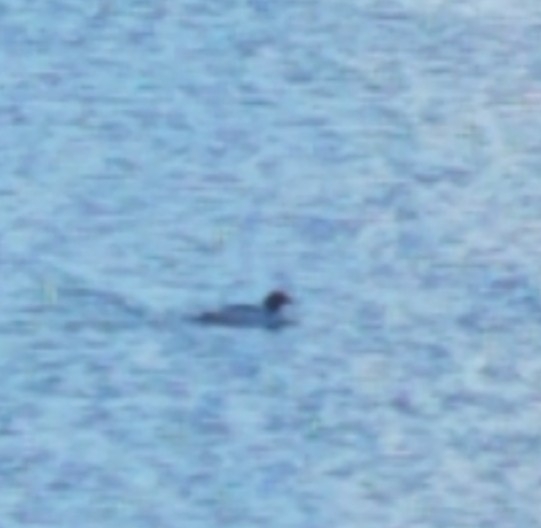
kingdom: Animalia
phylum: Chordata
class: Aves
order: Anseriformes
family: Anatidae
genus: Mergus
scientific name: Mergus merganser
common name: Common merganser
